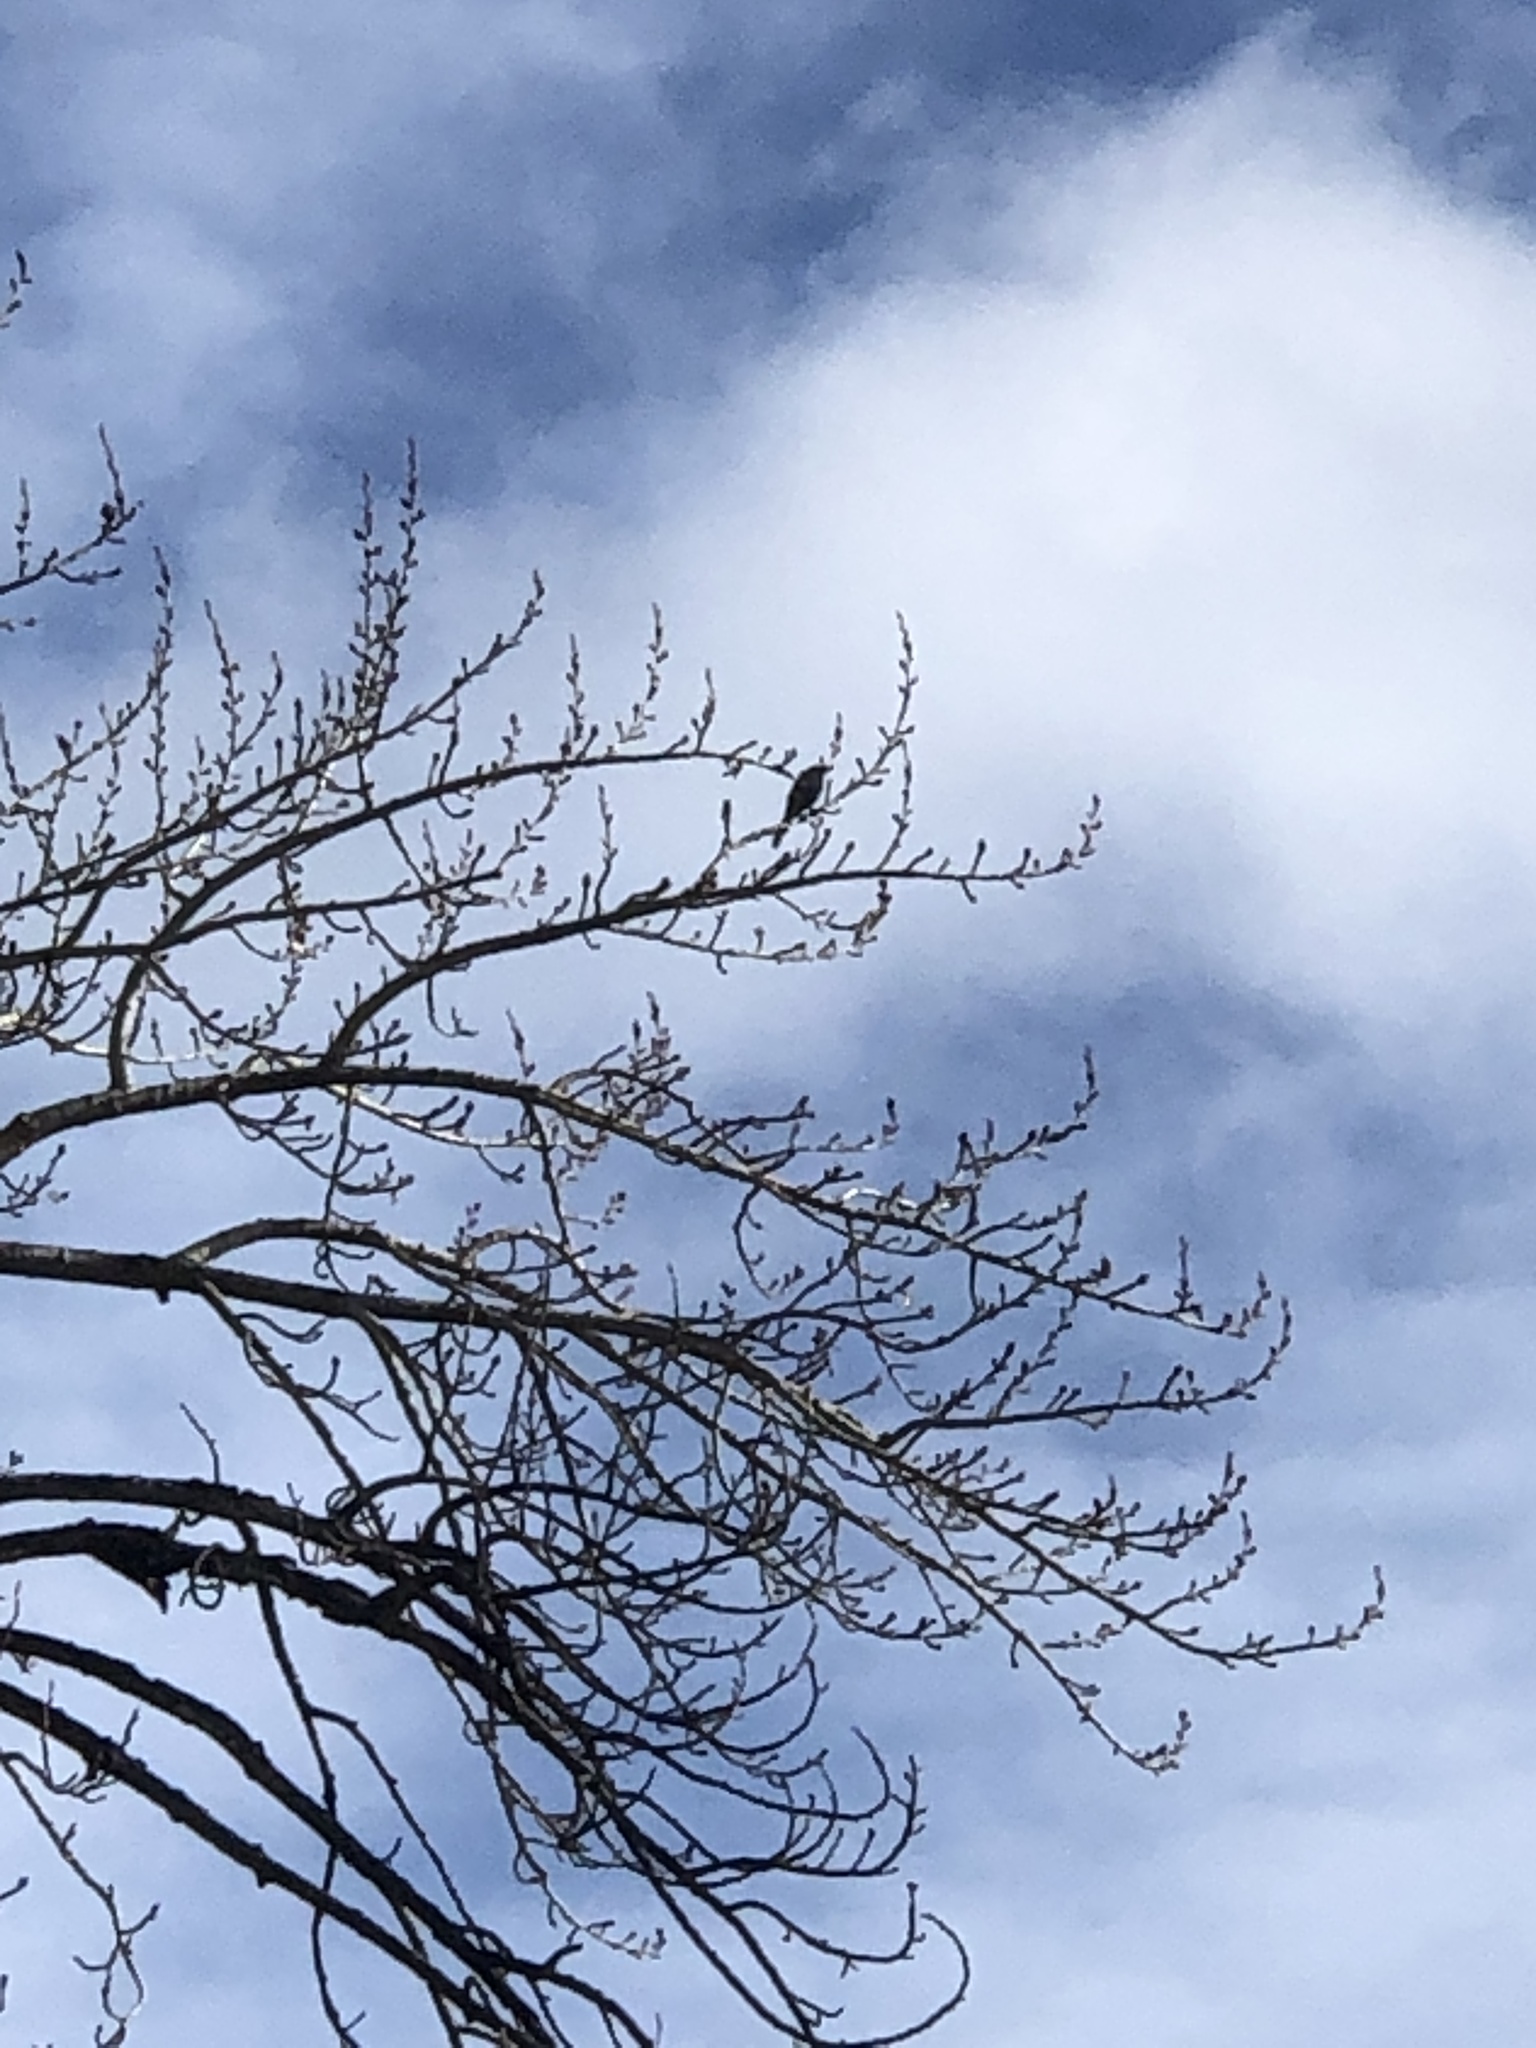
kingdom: Animalia
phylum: Chordata
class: Aves
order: Passeriformes
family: Corvidae
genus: Cyanocitta
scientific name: Cyanocitta stelleri
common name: Steller's jay
